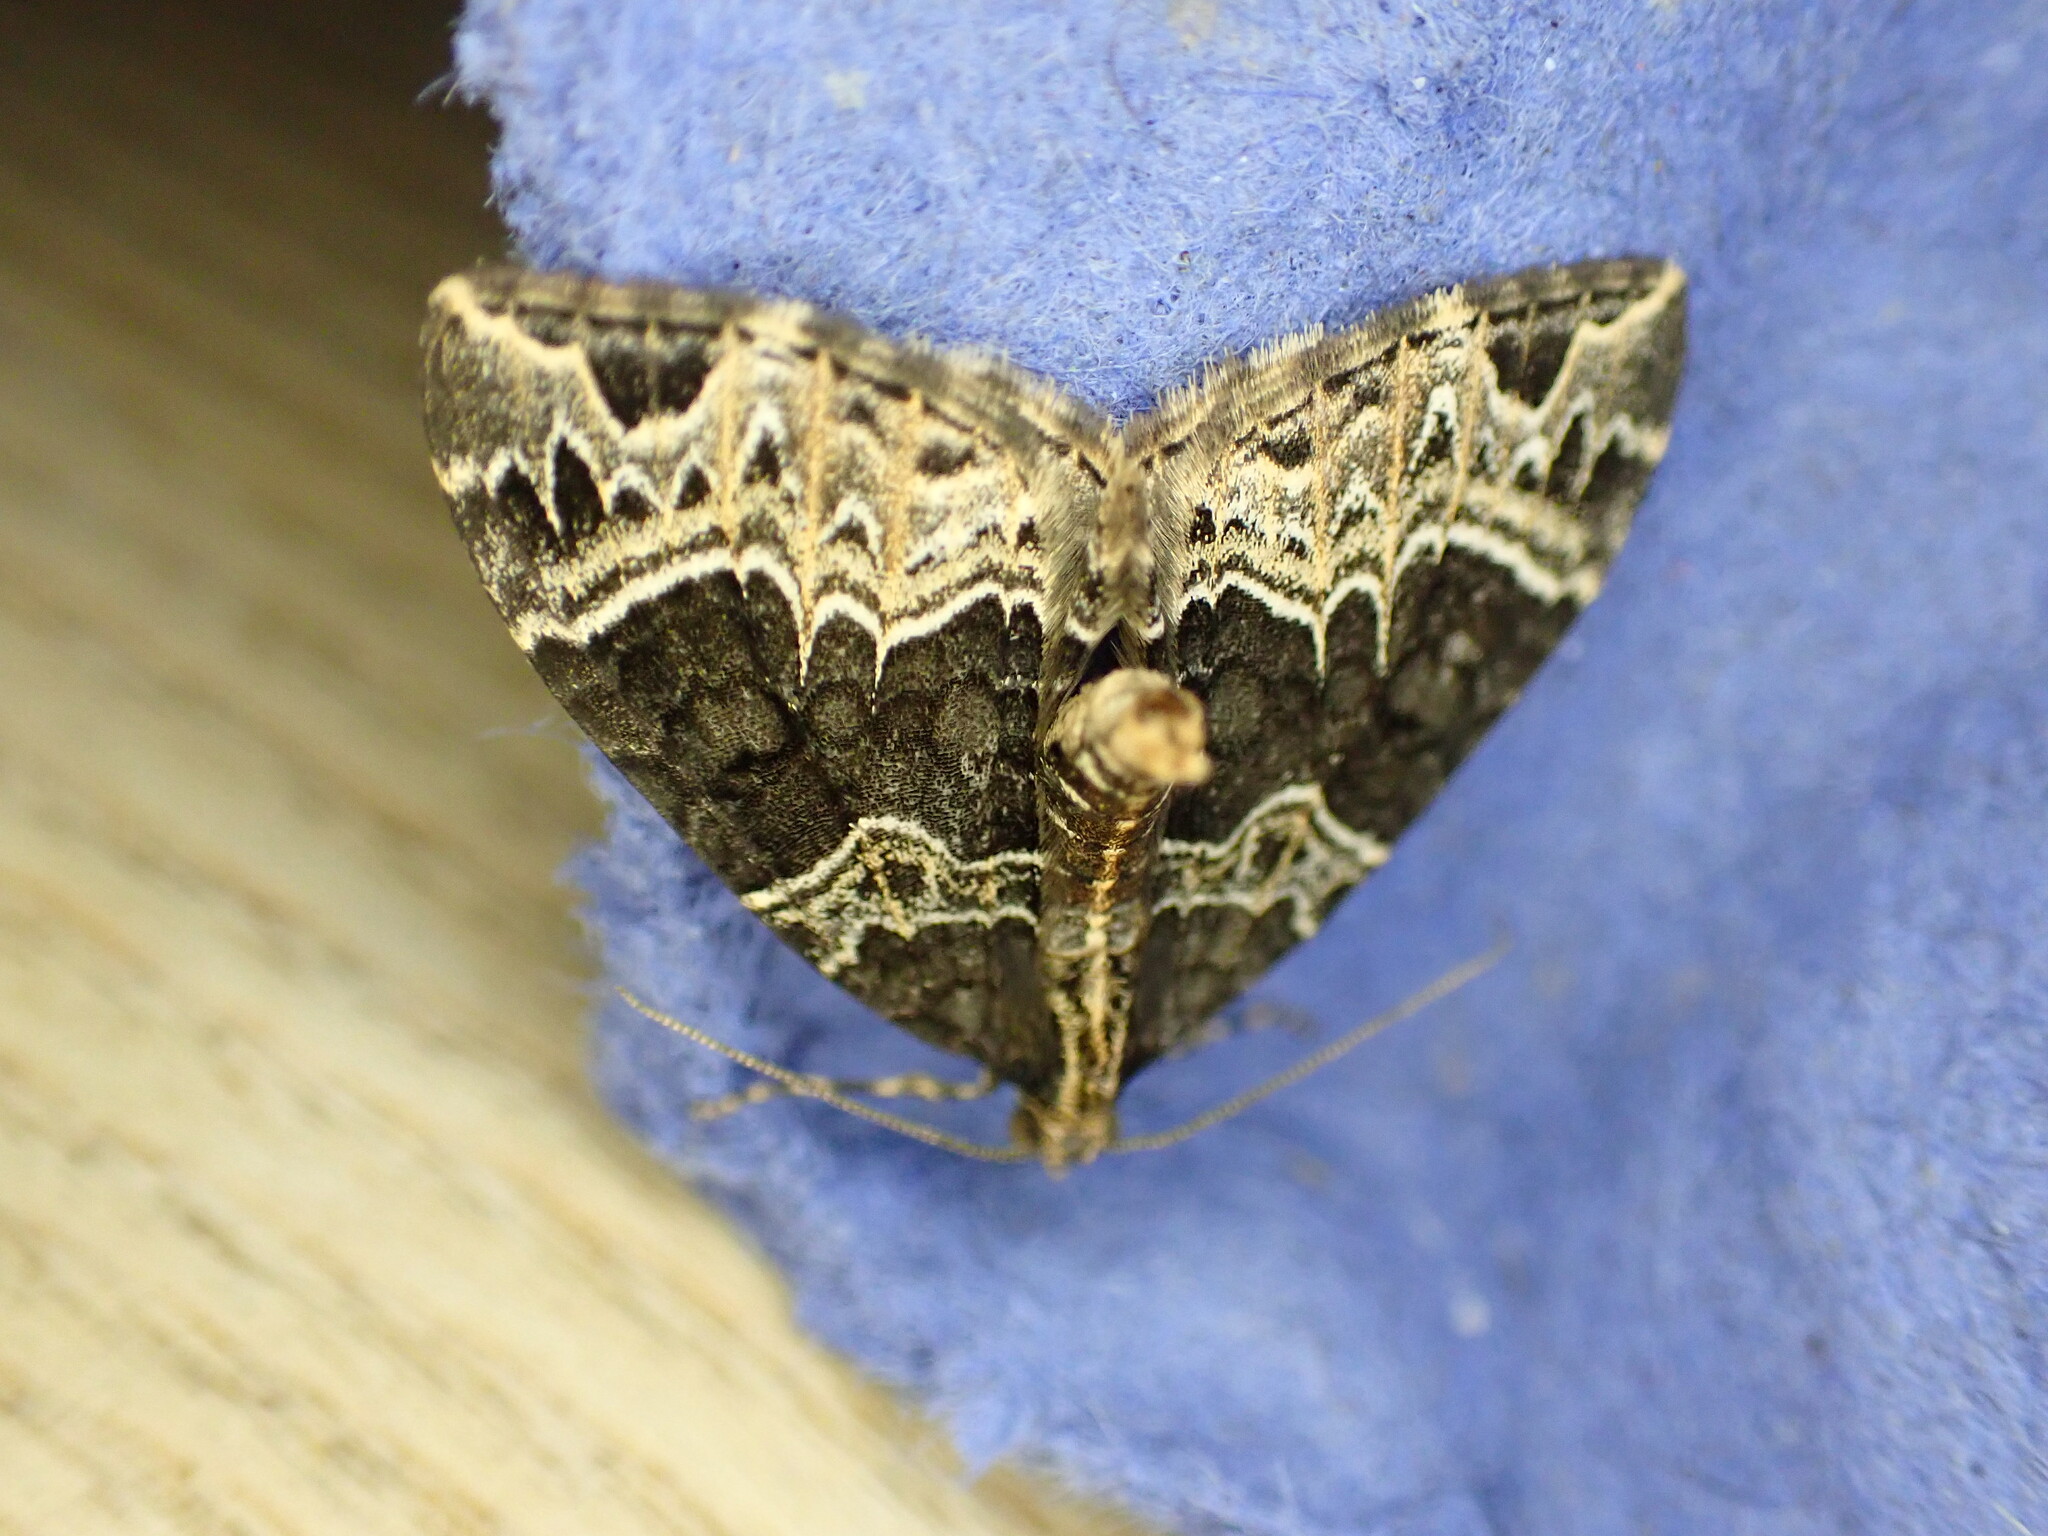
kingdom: Animalia
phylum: Arthropoda
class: Insecta
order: Lepidoptera
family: Geometridae
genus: Ecliptopera
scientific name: Ecliptopera silaceata
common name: Small phoenix
